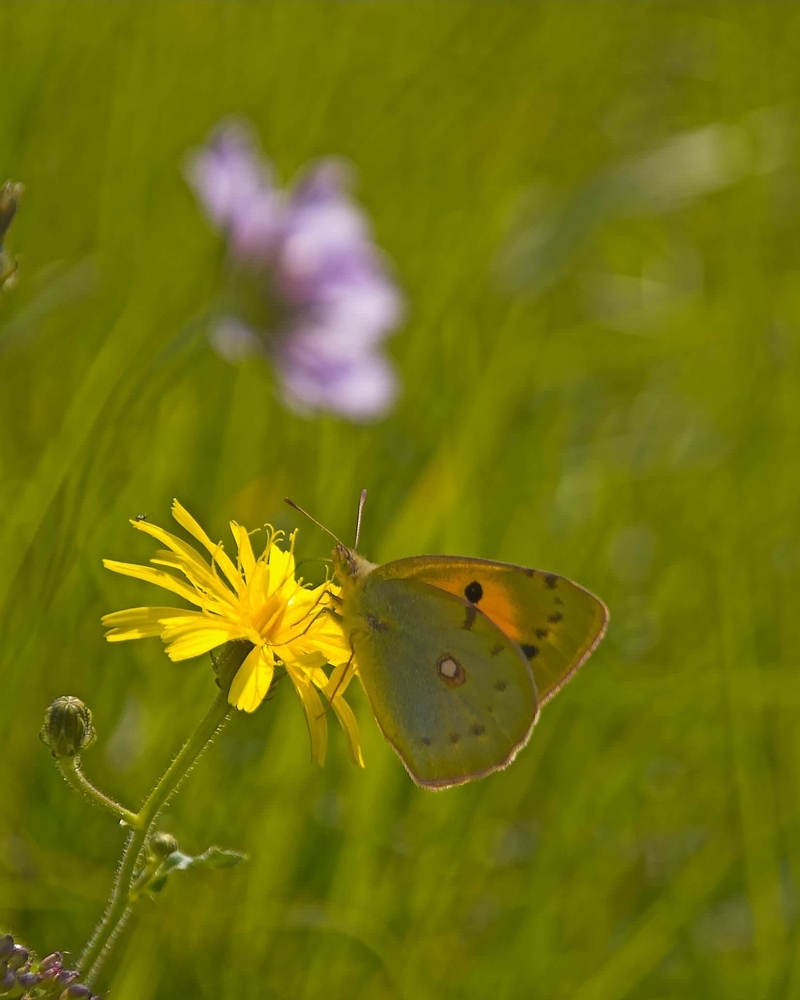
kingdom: Animalia
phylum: Arthropoda
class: Insecta
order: Lepidoptera
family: Pieridae
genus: Colias
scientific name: Colias croceus
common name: Clouded yellow
